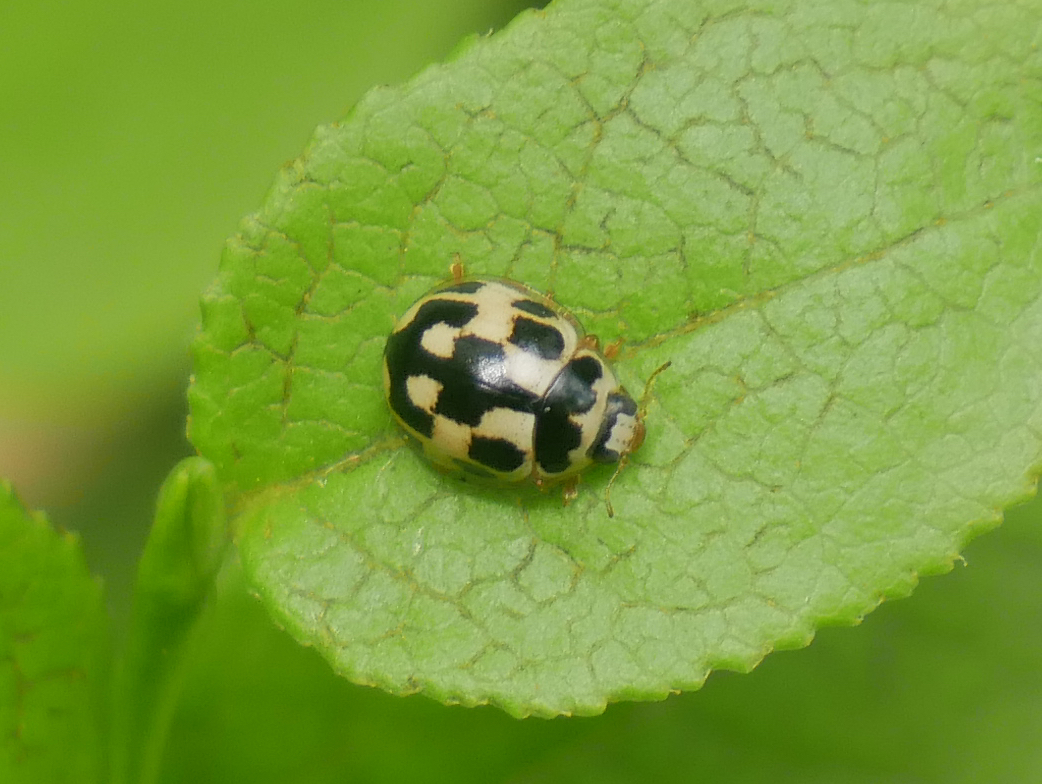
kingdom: Animalia
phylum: Arthropoda
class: Insecta
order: Coleoptera
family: Coccinellidae
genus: Propylaea
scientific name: Propylaea quatuordecimpunctata
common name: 14-spotted ladybird beetle
